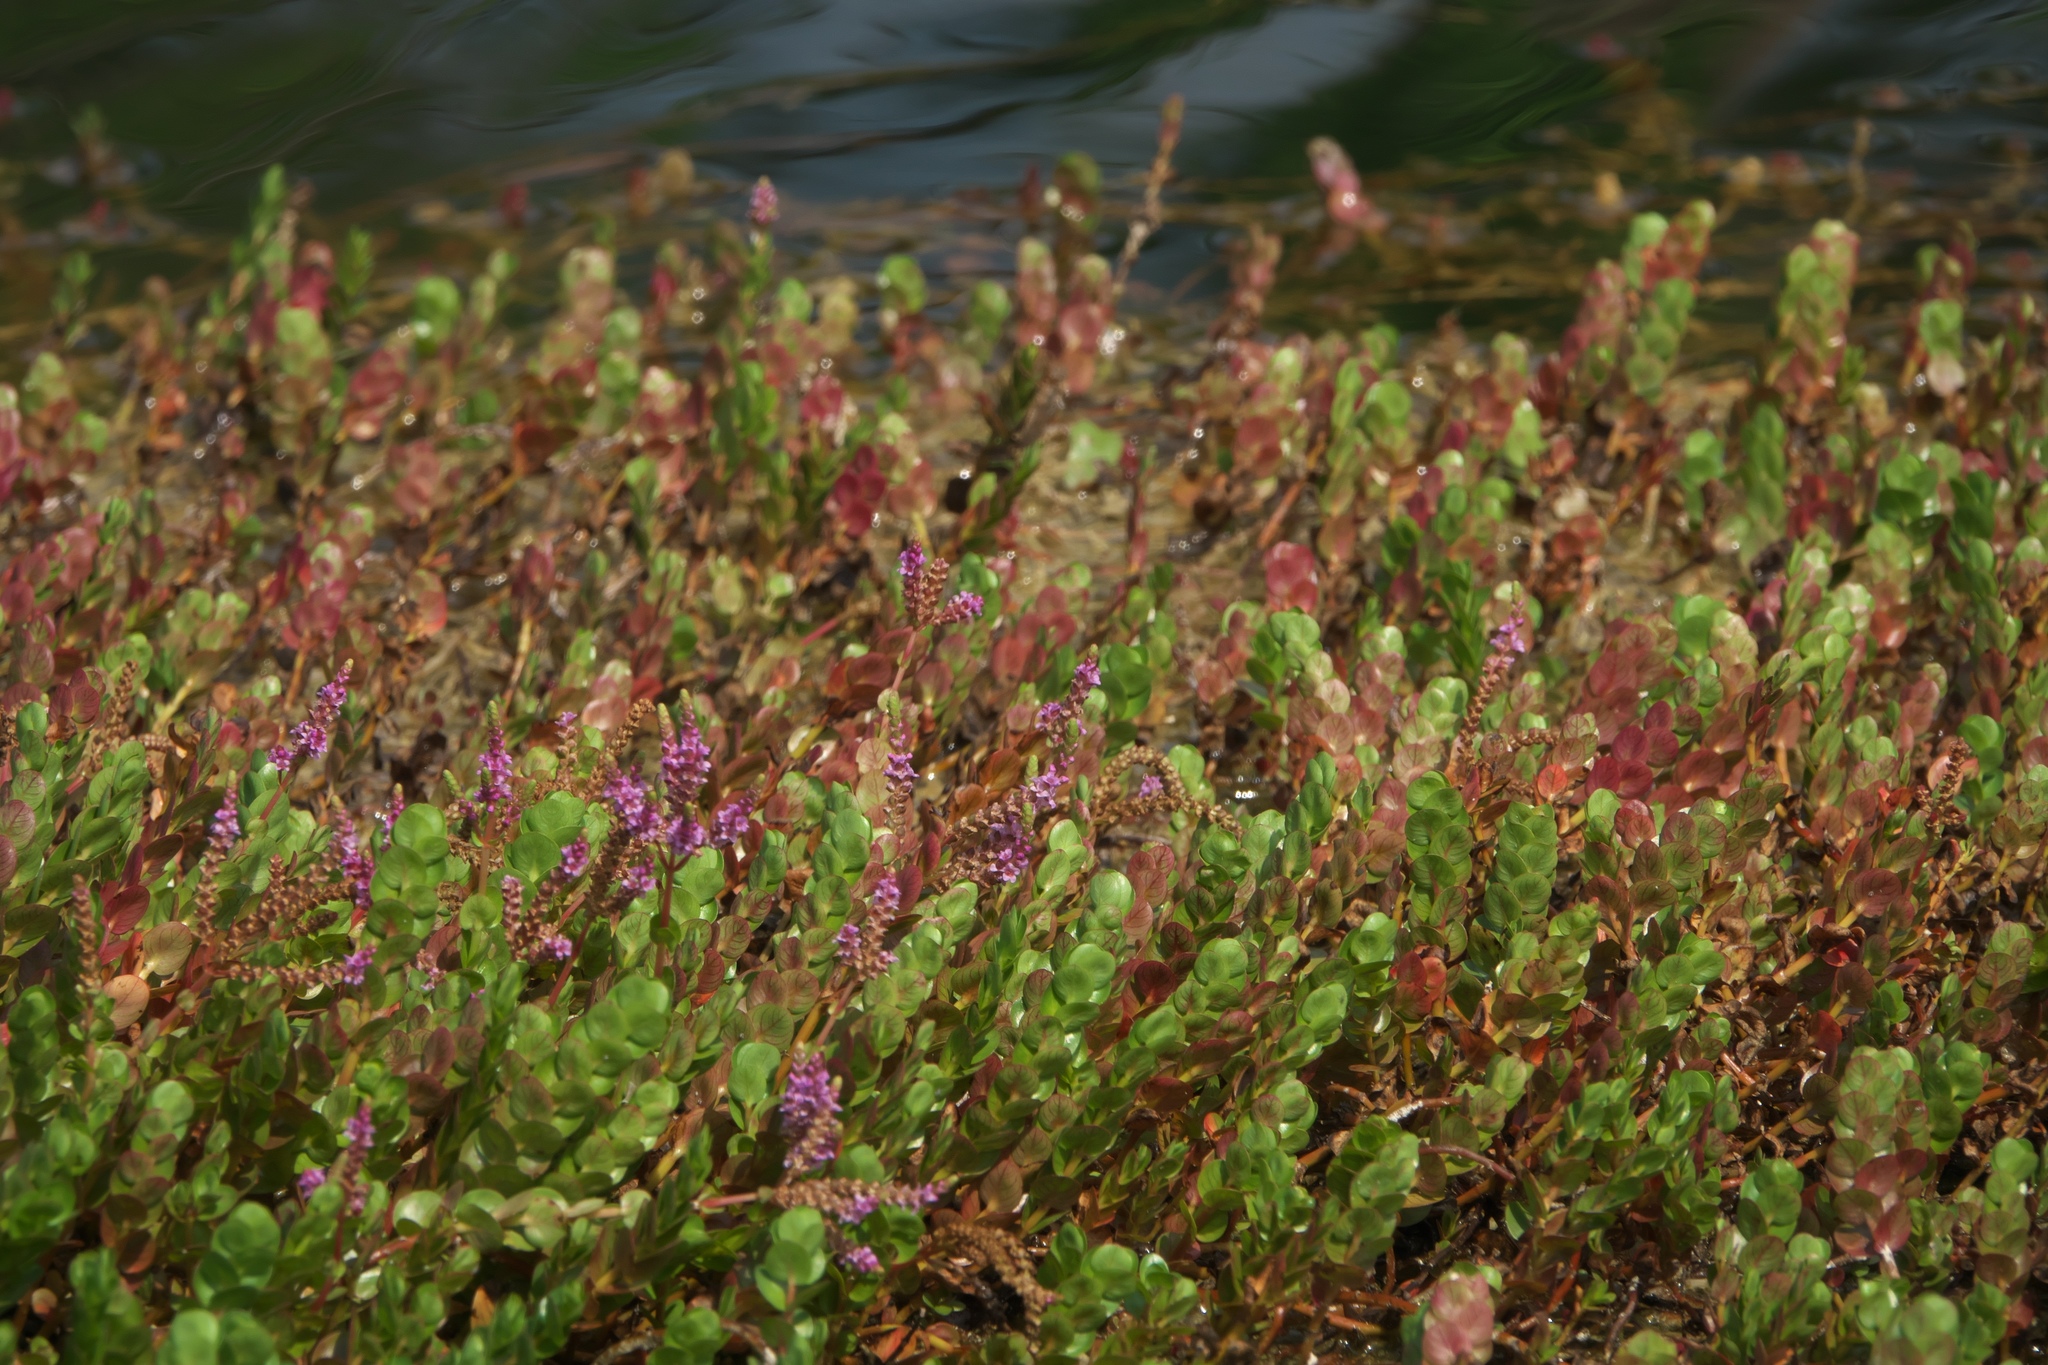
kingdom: Plantae
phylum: Tracheophyta
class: Magnoliopsida
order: Myrtales
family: Lythraceae
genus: Rotala
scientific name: Rotala rotundifolia
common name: Roundleaf toothcup
